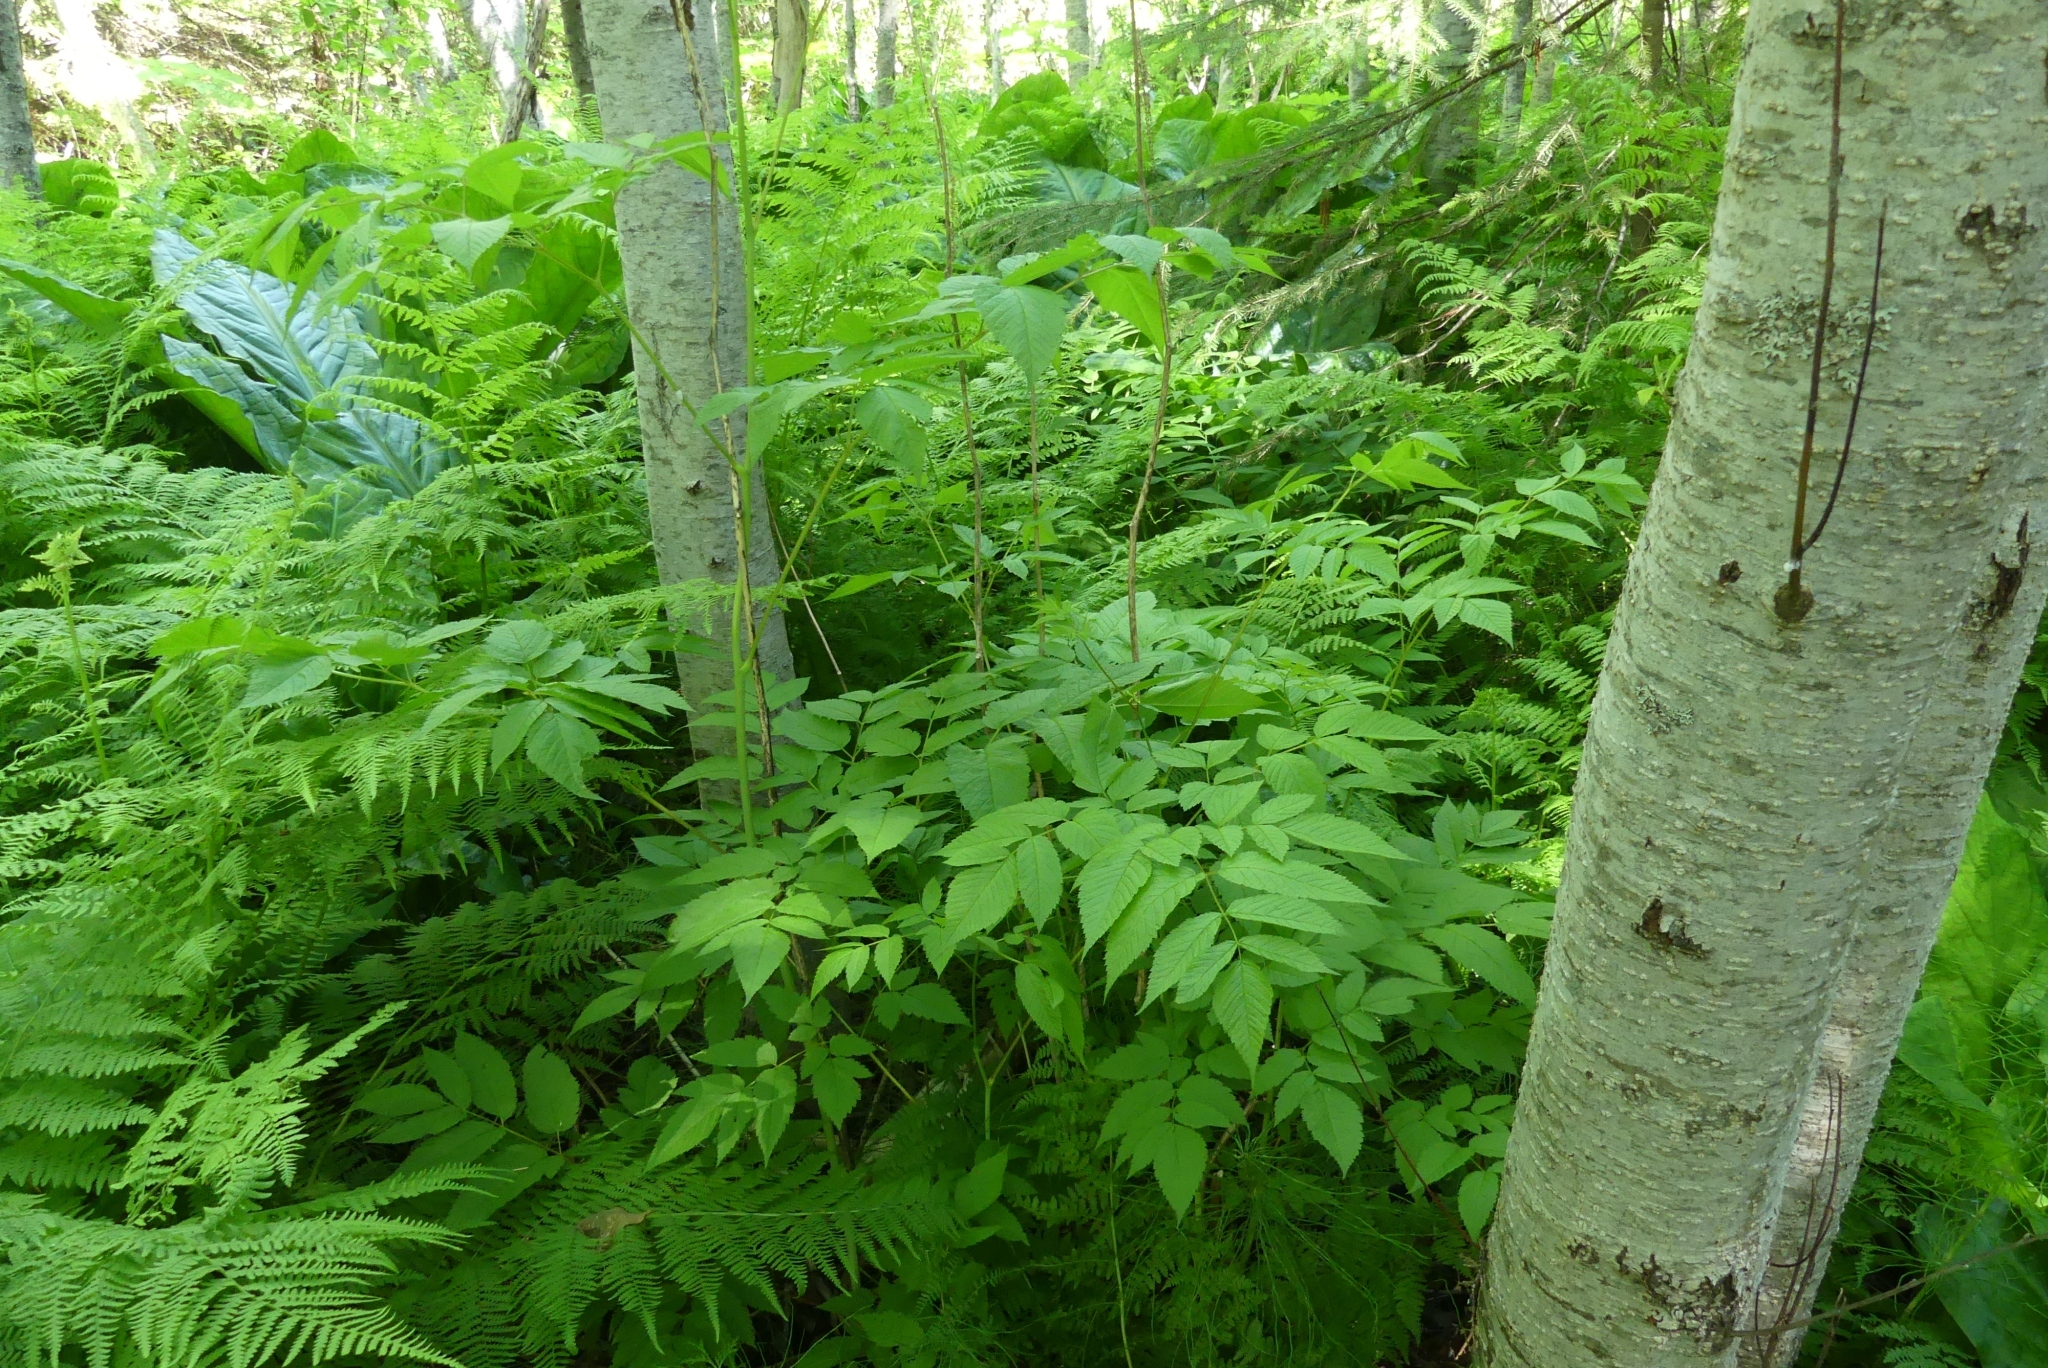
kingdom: Plantae
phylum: Tracheophyta
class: Magnoliopsida
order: Rosales
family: Rosaceae
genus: Aruncus
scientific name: Aruncus dioicus
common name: Buck's-beard
